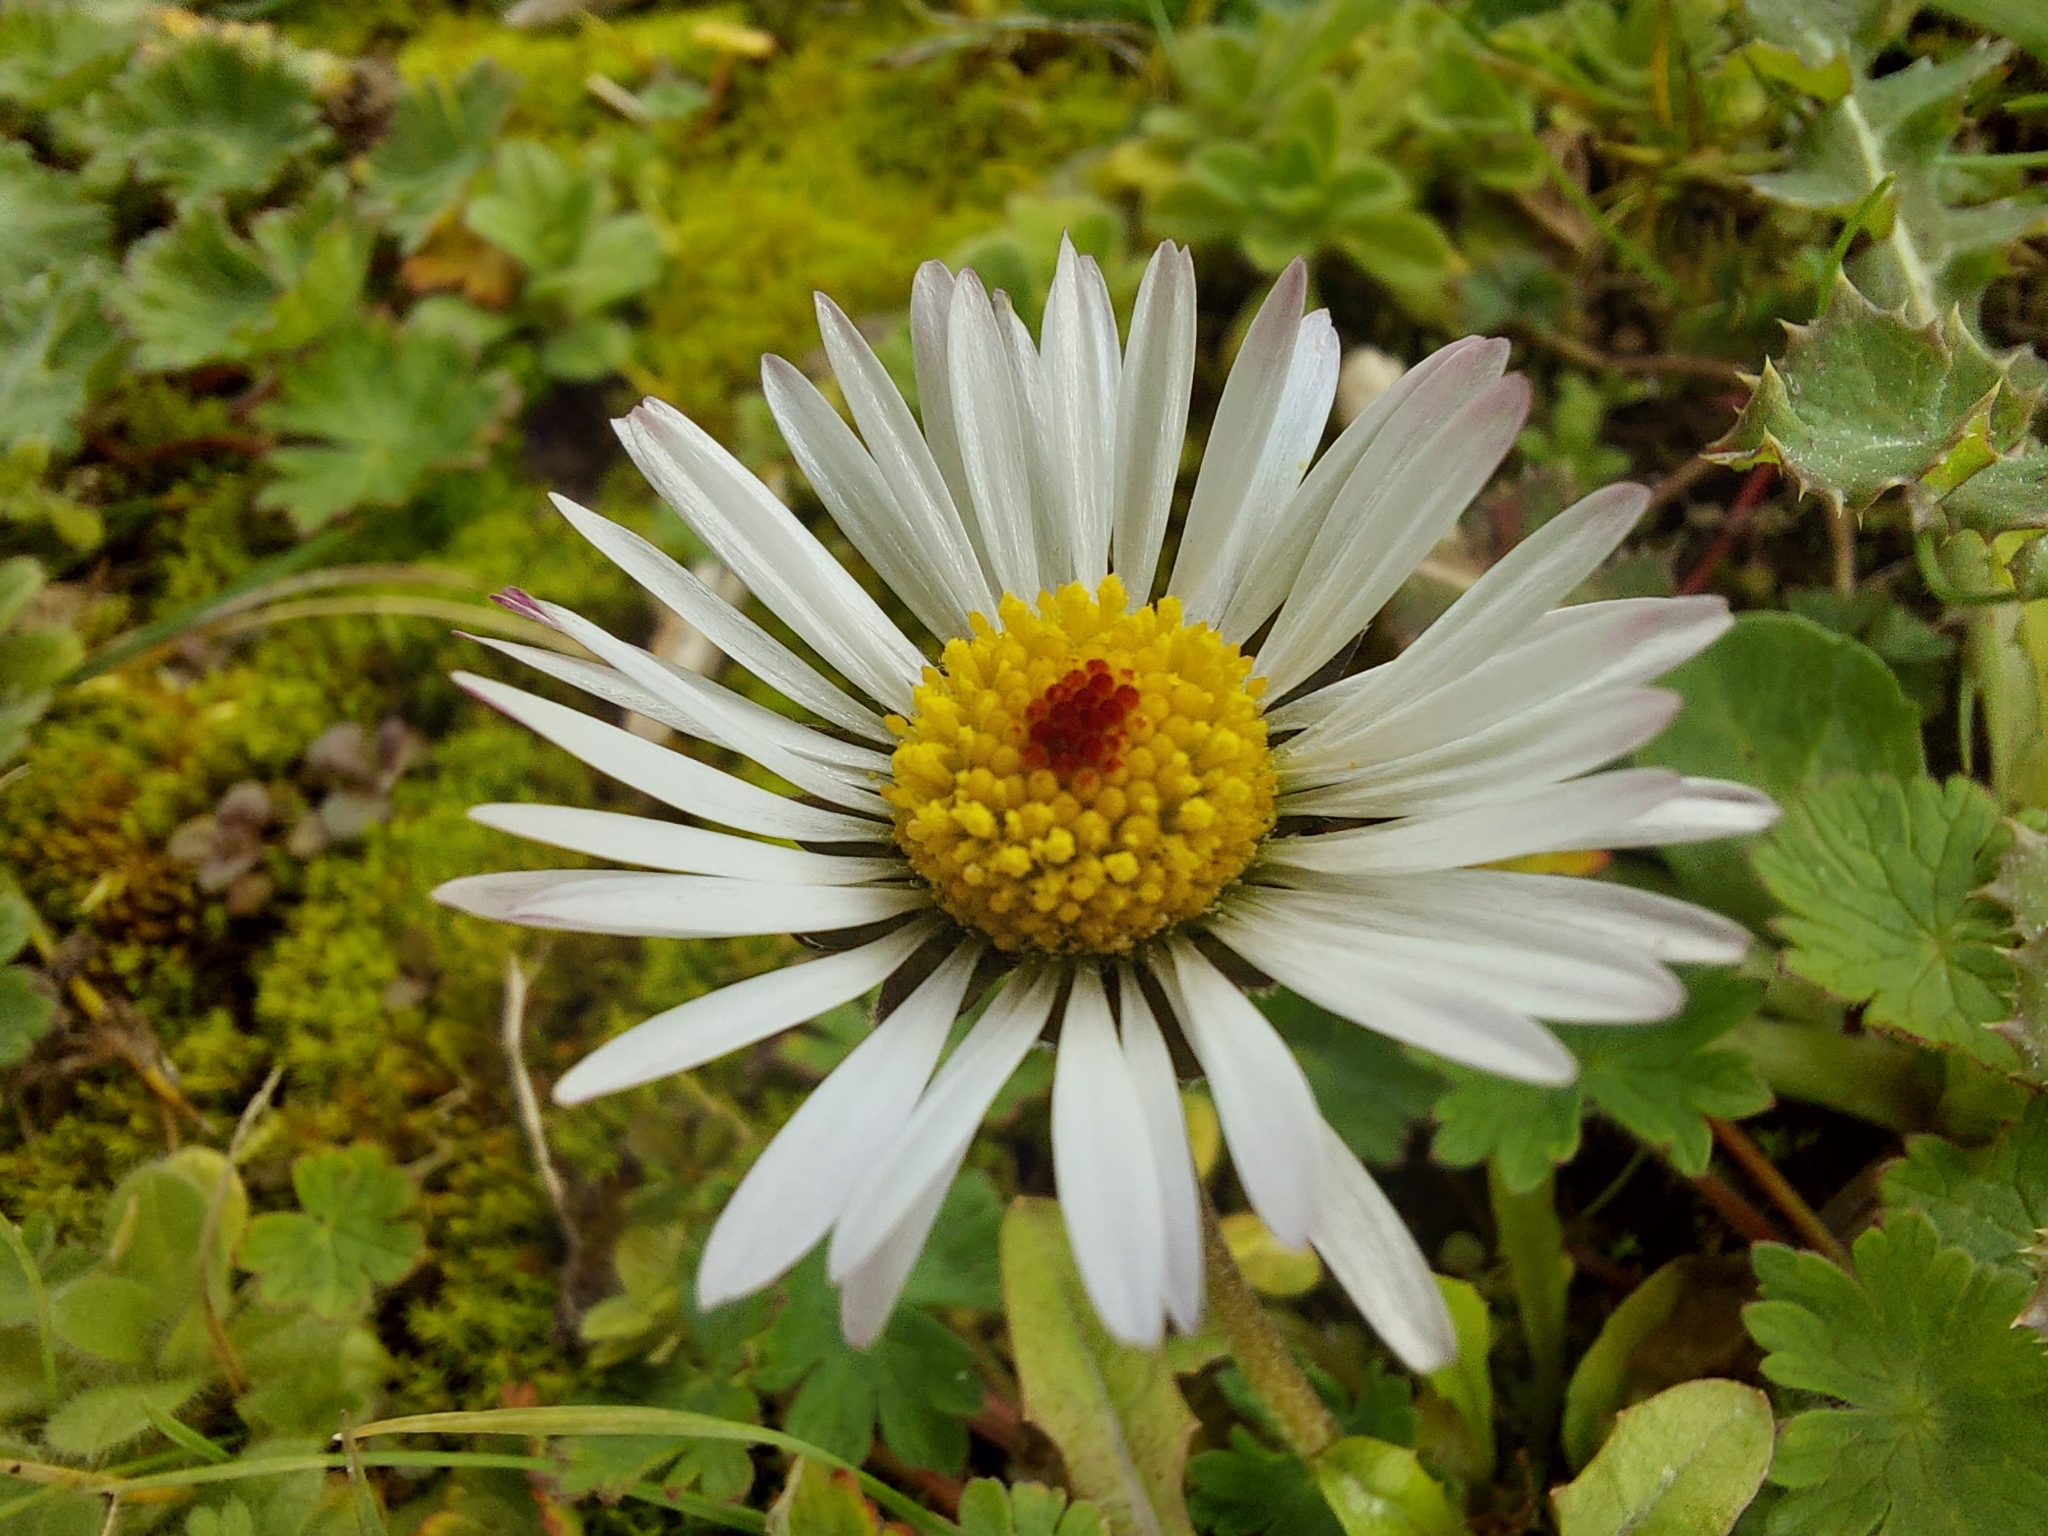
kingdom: Plantae
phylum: Tracheophyta
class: Magnoliopsida
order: Asterales
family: Asteraceae
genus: Bellis
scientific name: Bellis perennis
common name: Lawndaisy
